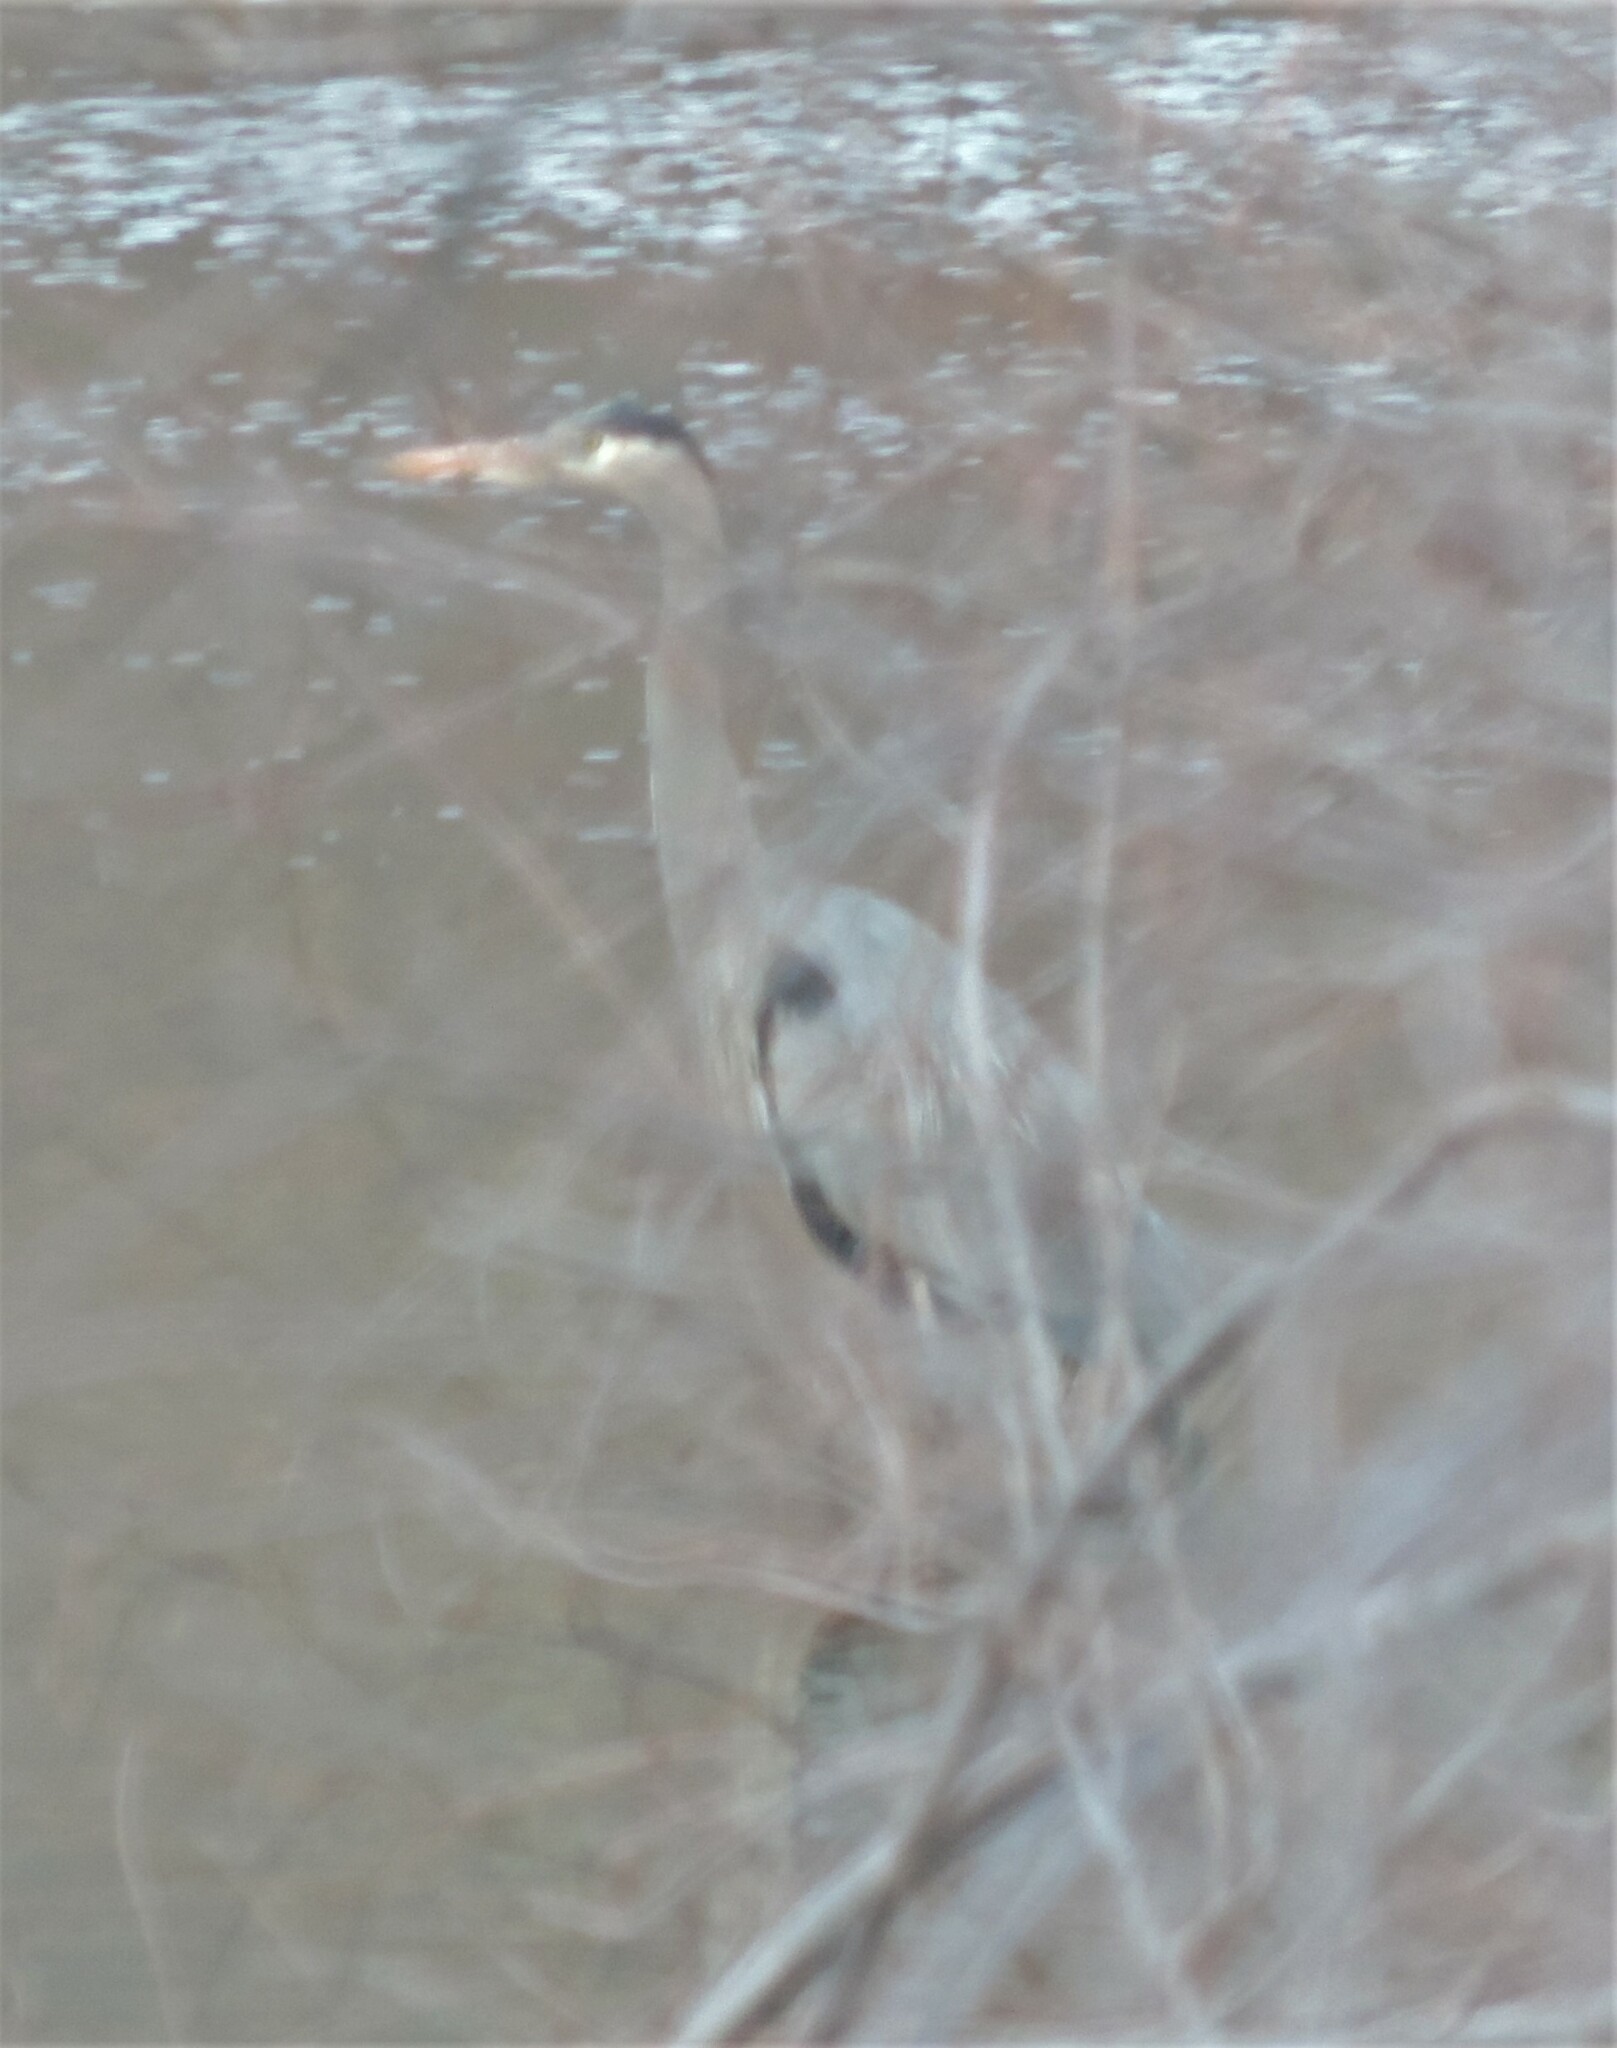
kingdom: Animalia
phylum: Chordata
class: Aves
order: Pelecaniformes
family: Ardeidae
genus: Ardea
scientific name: Ardea herodias
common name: Great blue heron
